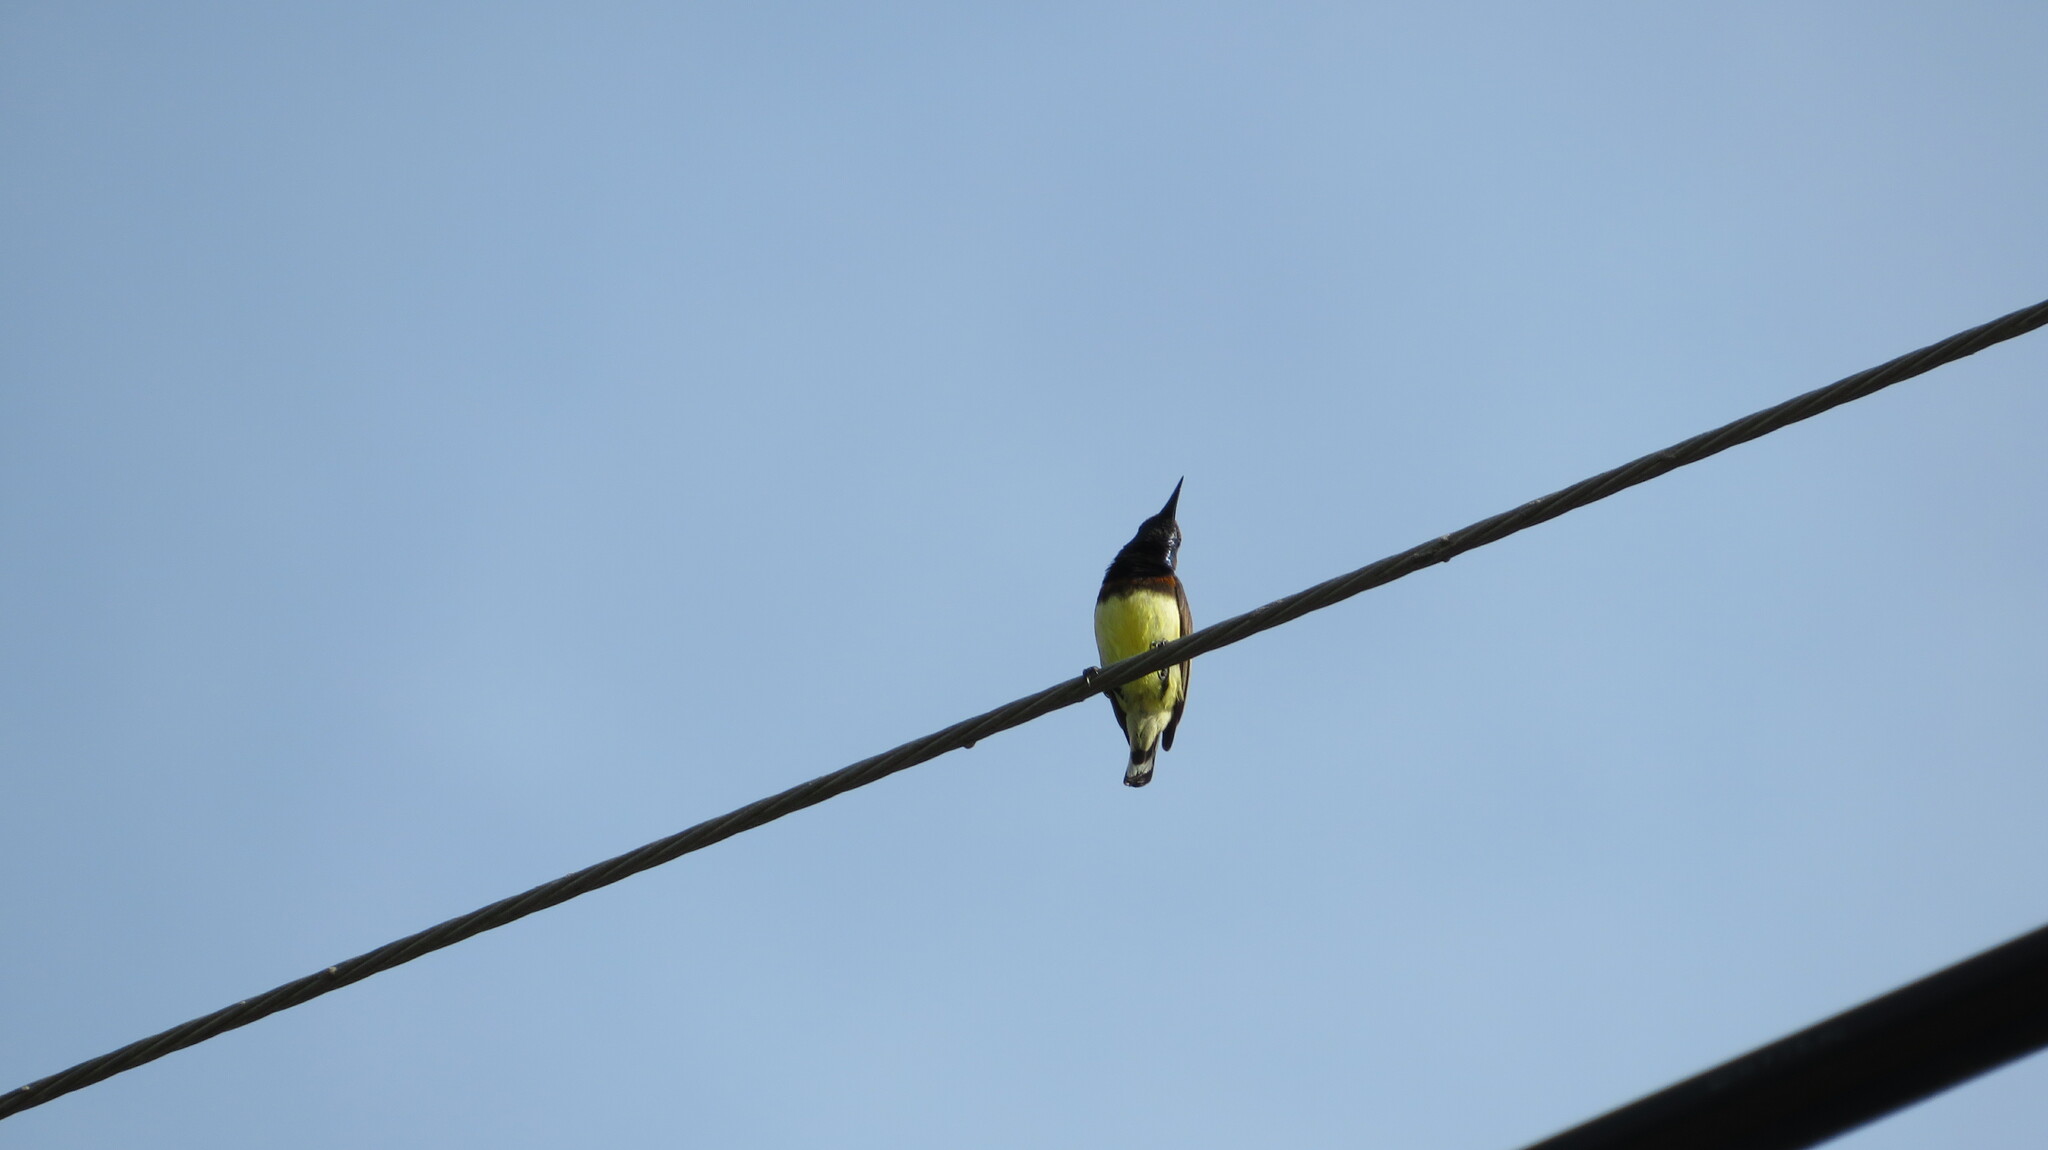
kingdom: Animalia
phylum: Chordata
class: Aves
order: Passeriformes
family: Nectariniidae
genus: Cinnyris
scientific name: Cinnyris
